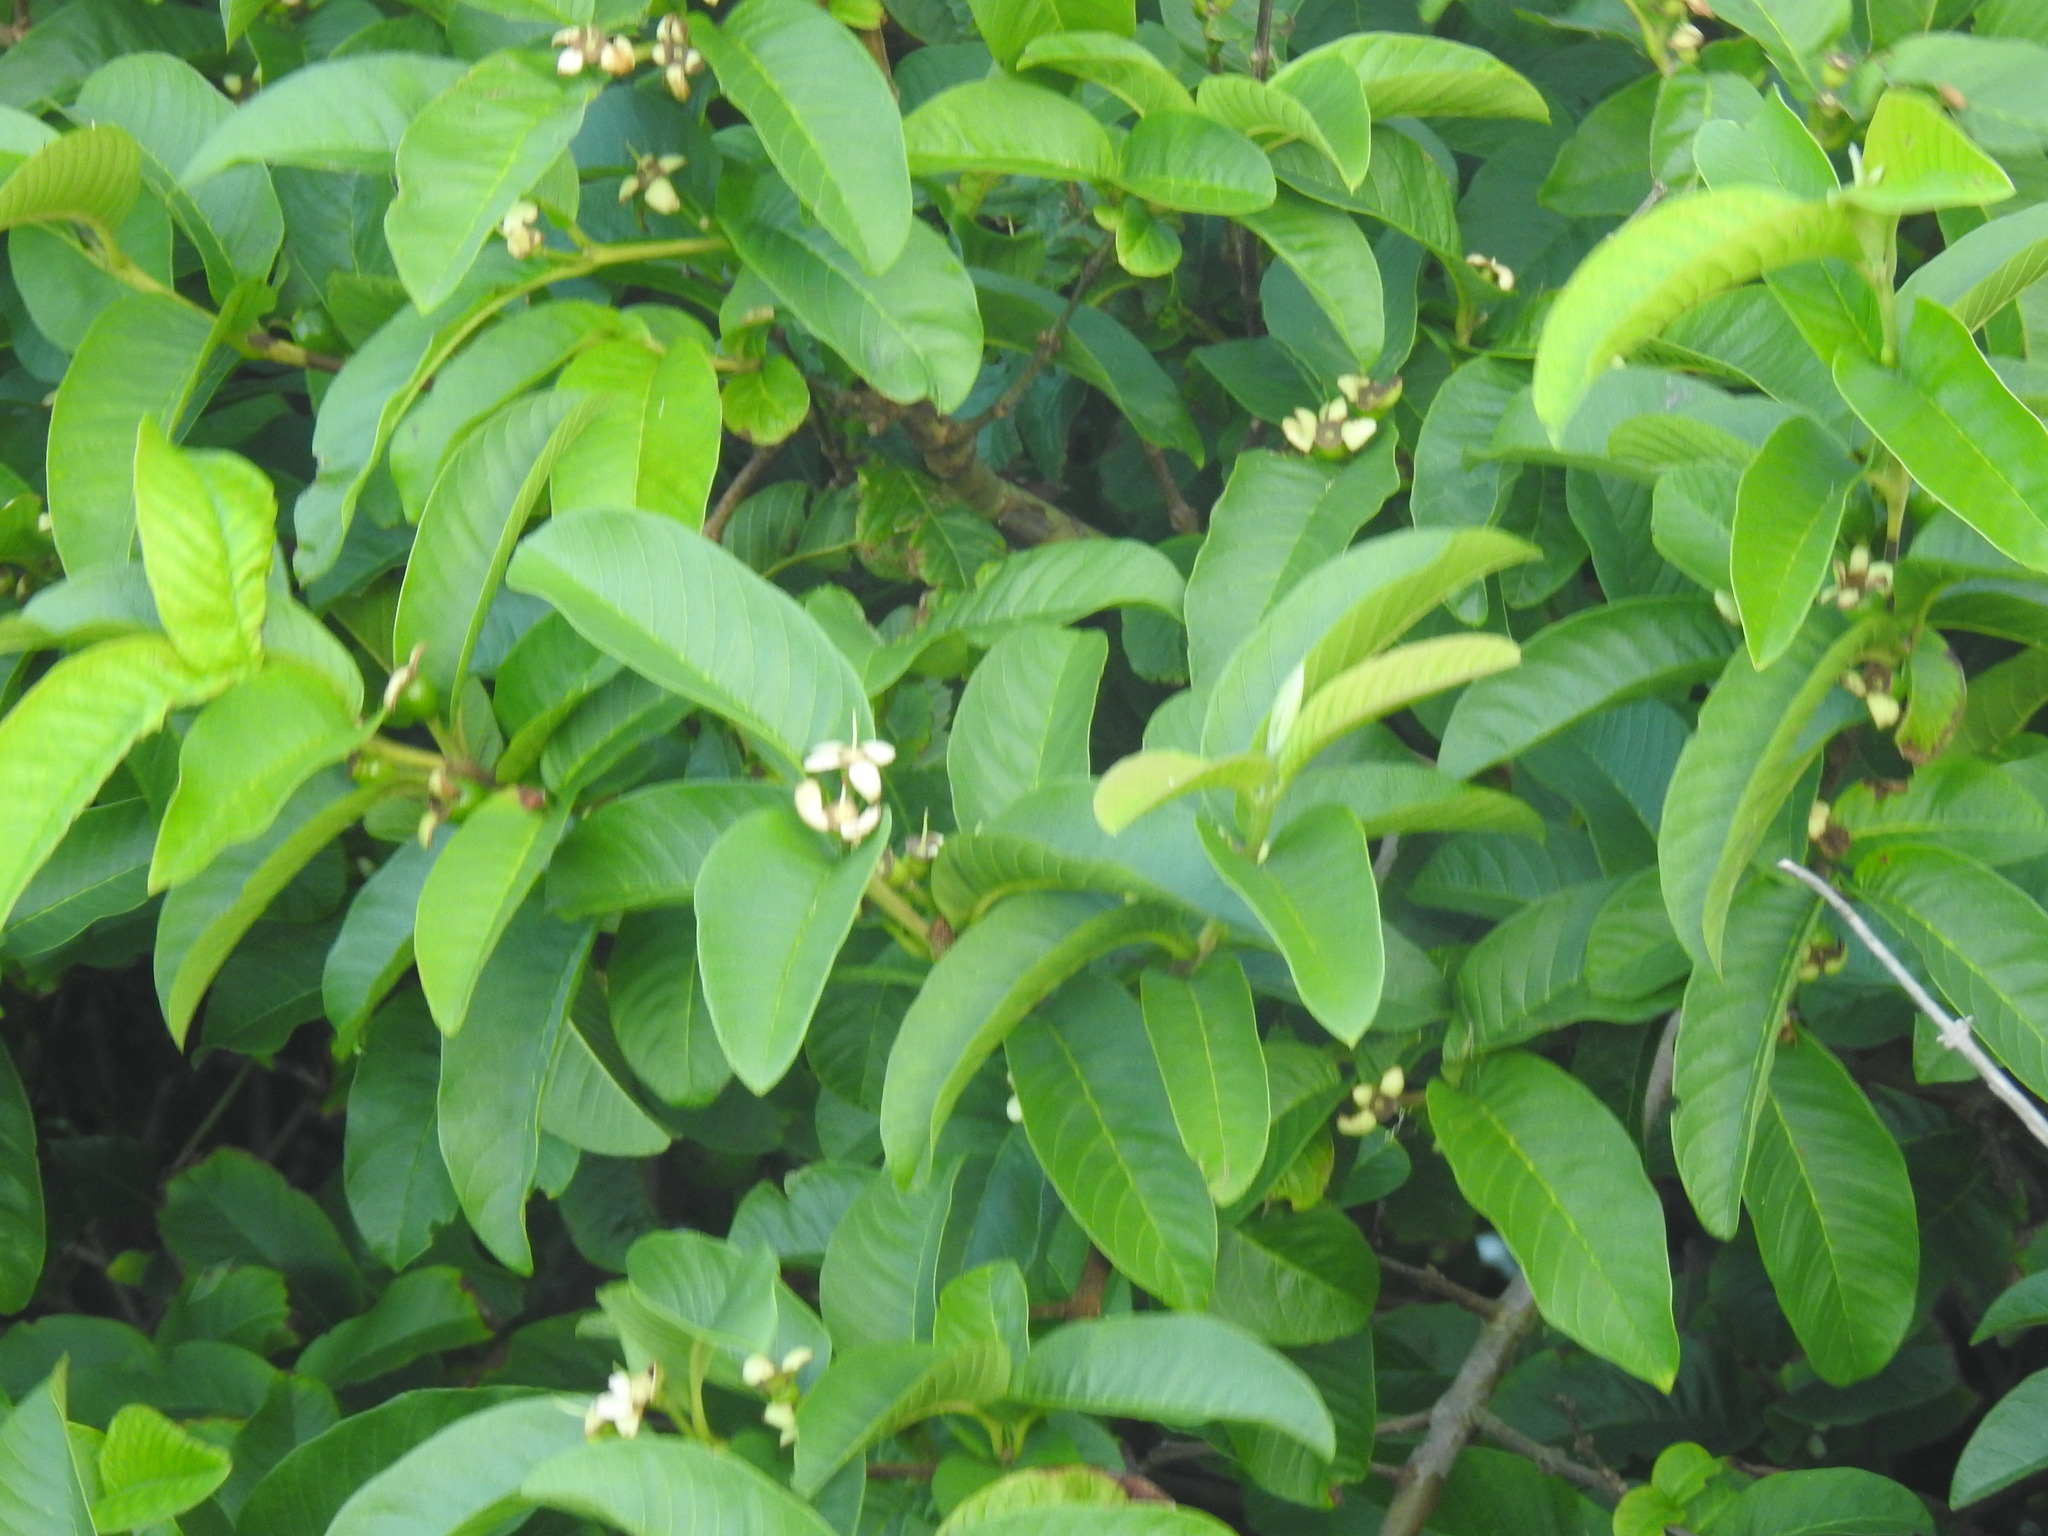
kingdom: Plantae
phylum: Tracheophyta
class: Magnoliopsida
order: Myrtales
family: Myrtaceae
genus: Psidium
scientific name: Psidium guajava
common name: Guava
